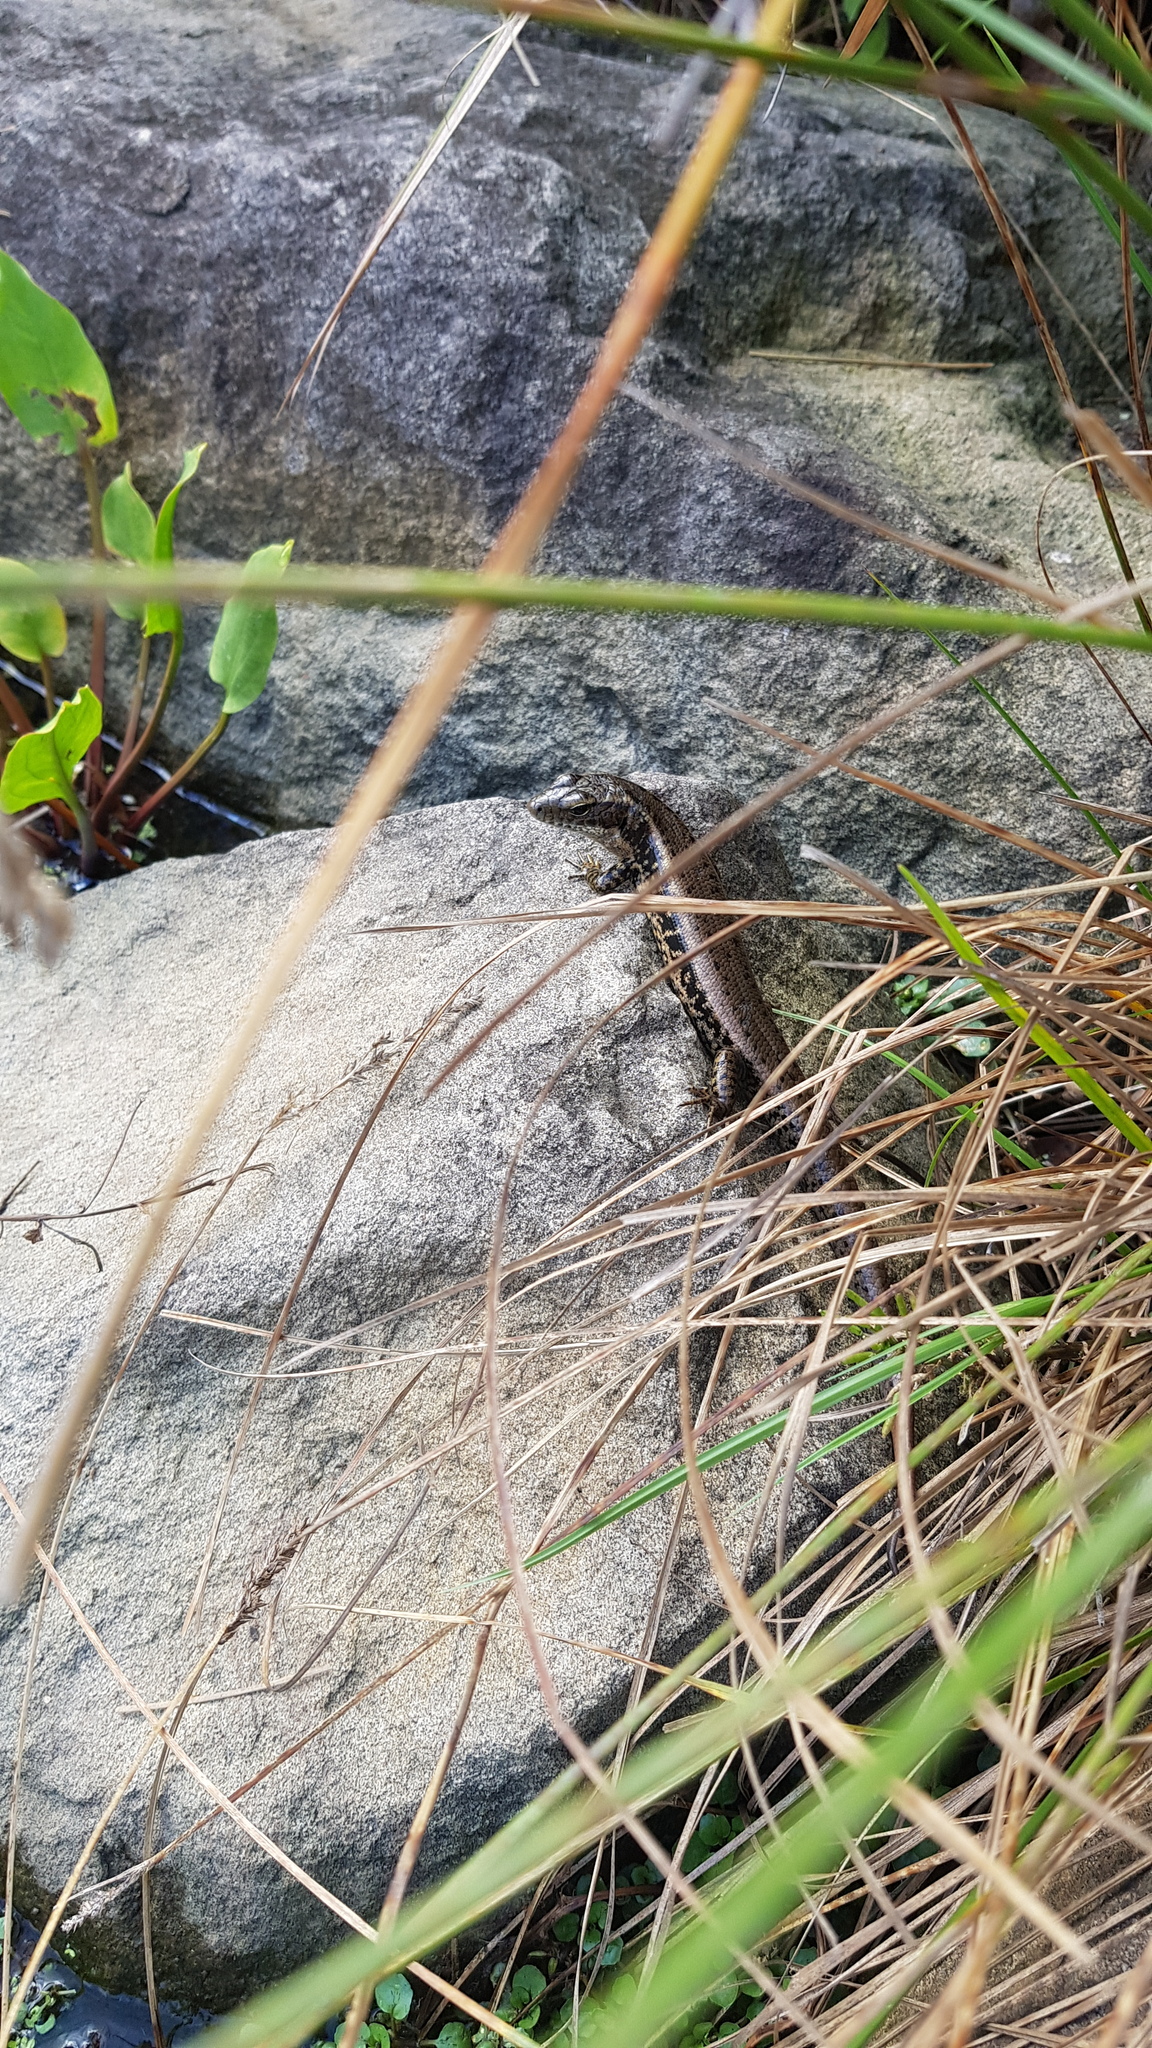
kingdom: Animalia
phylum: Chordata
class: Squamata
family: Scincidae
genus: Eulamprus
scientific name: Eulamprus quoyii
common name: Eastern water skink
